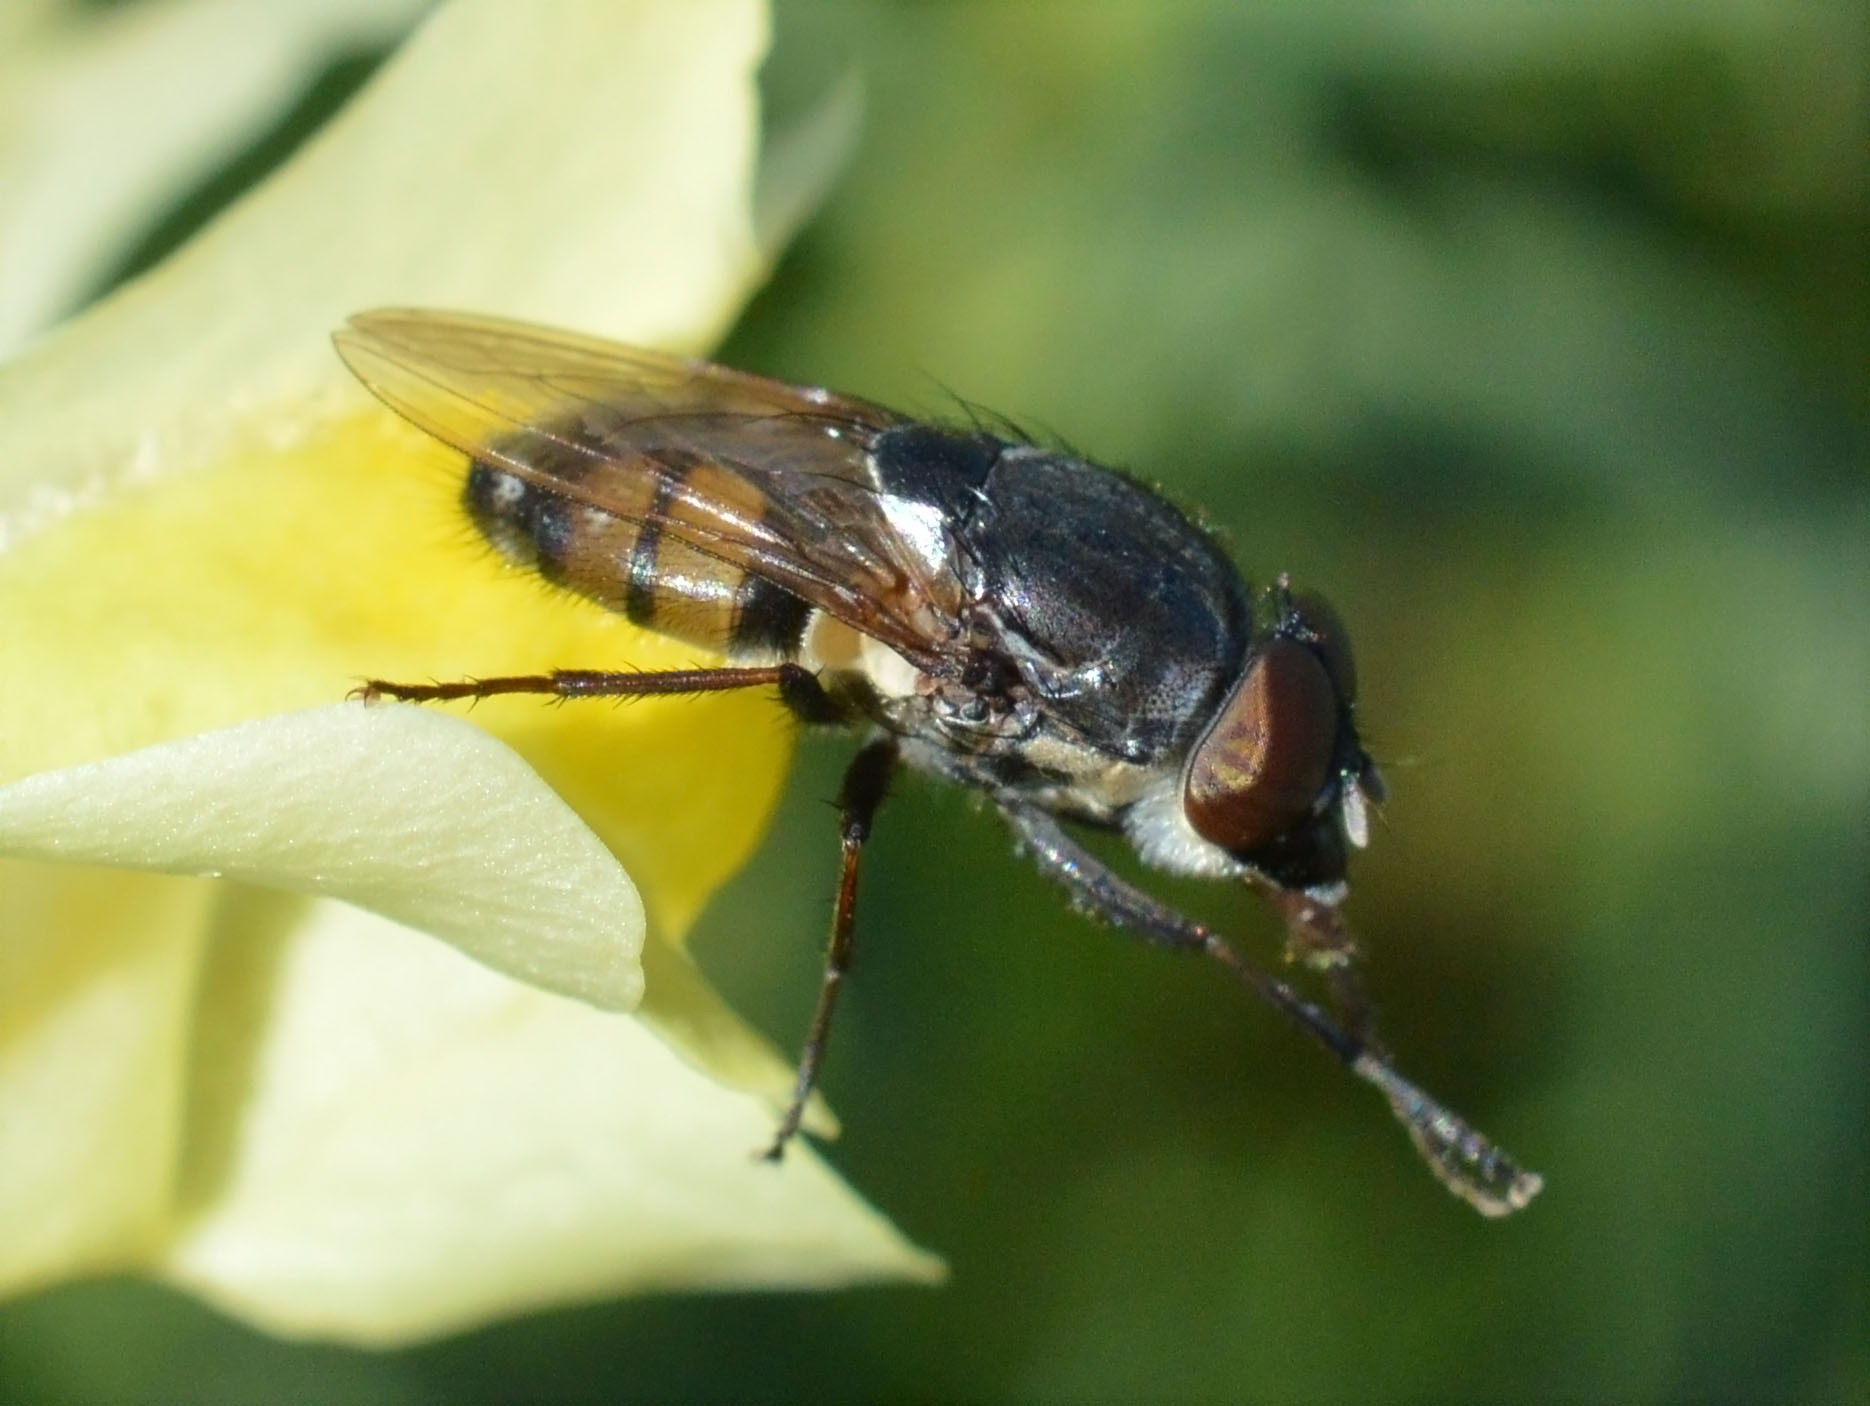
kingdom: Animalia
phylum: Arthropoda
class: Insecta
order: Diptera
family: Calliphoridae
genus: Stomorhina
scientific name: Stomorhina lunata
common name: Locust blowfly
